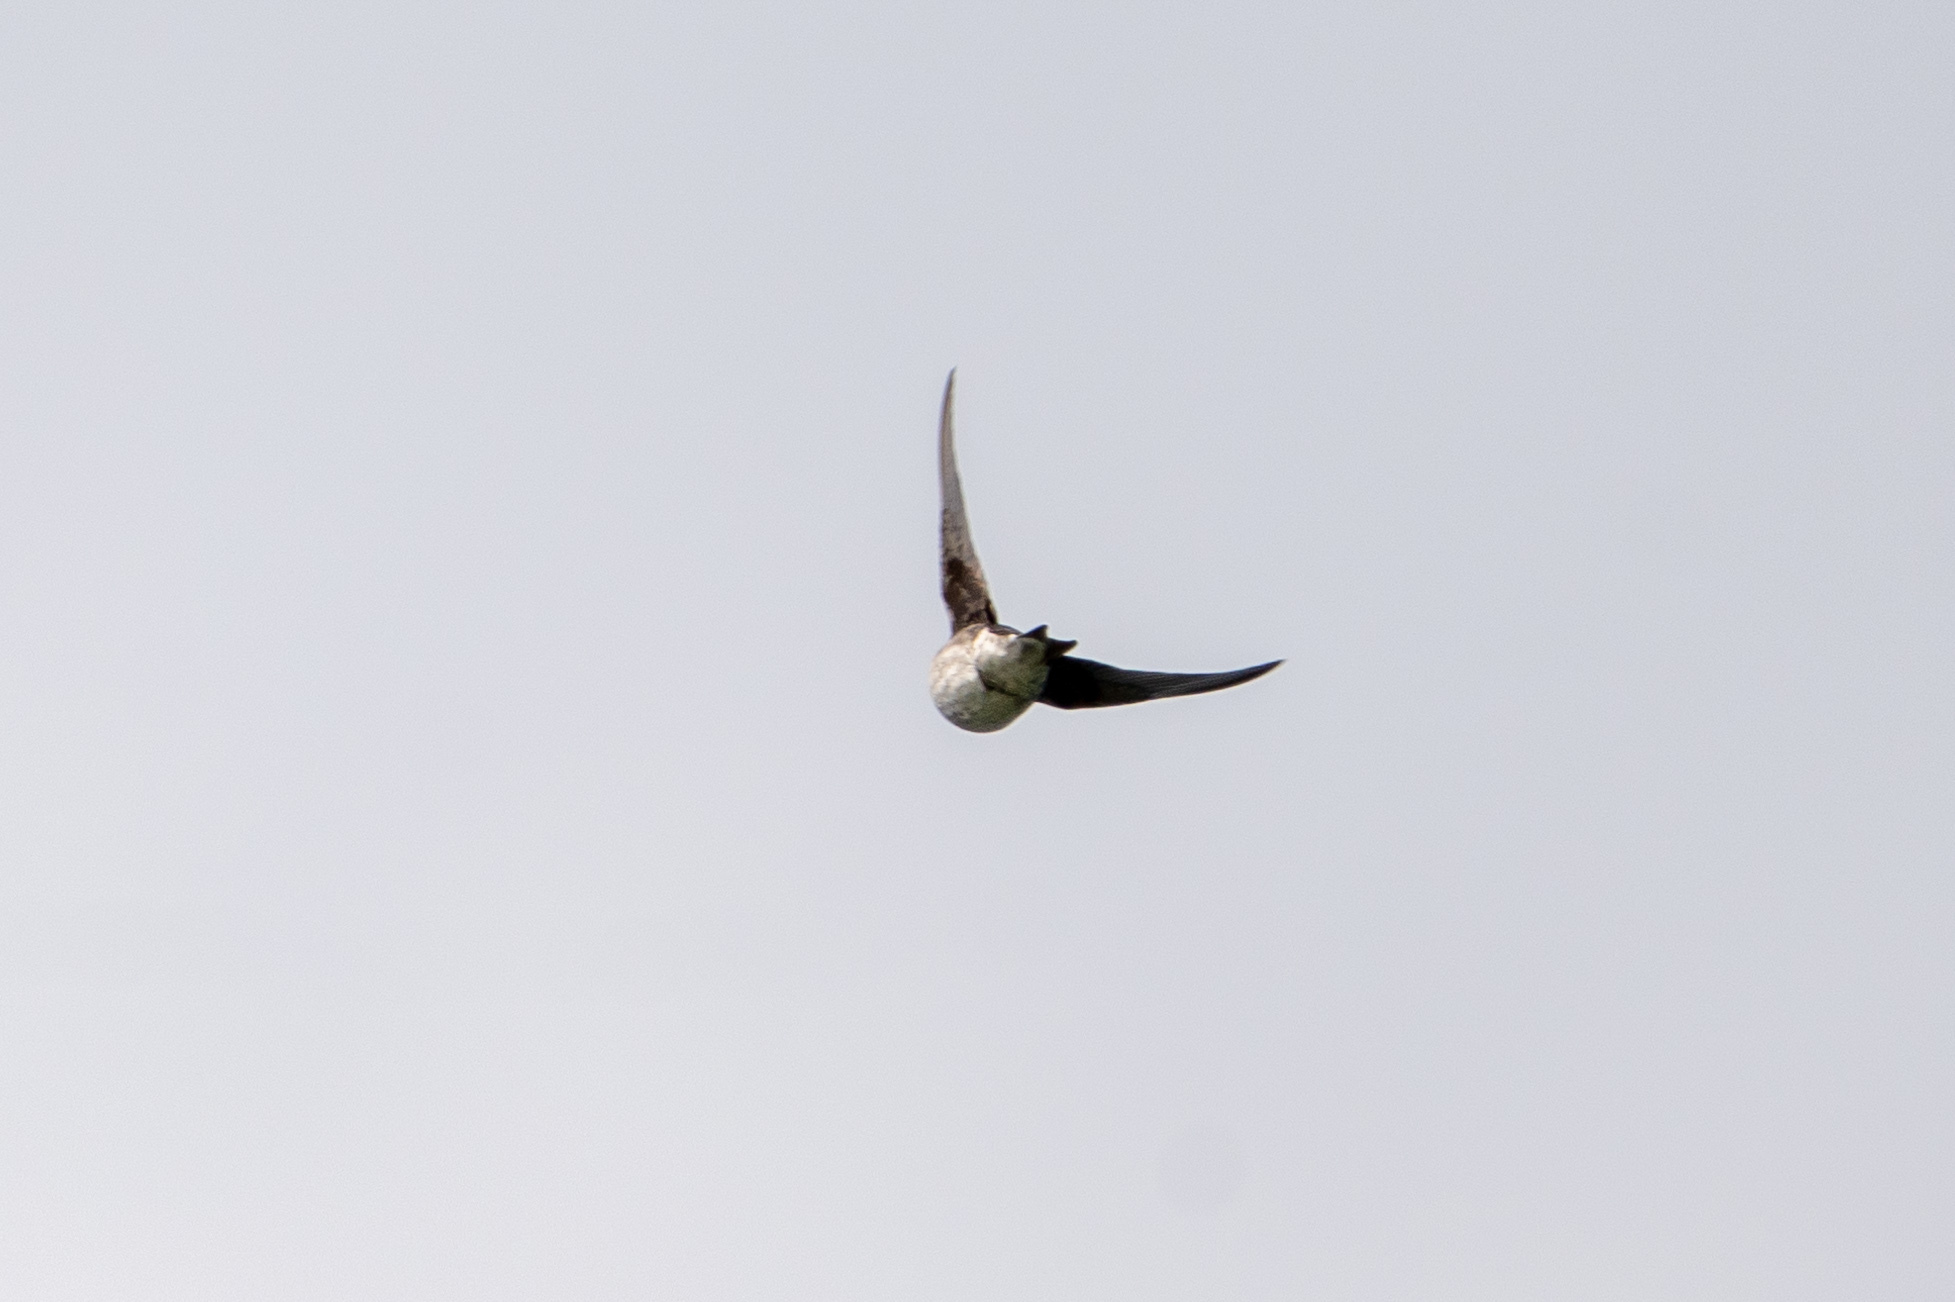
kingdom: Animalia
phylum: Chordata
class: Aves
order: Passeriformes
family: Hirundinidae
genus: Progne
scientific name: Progne subis
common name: Purple martin
